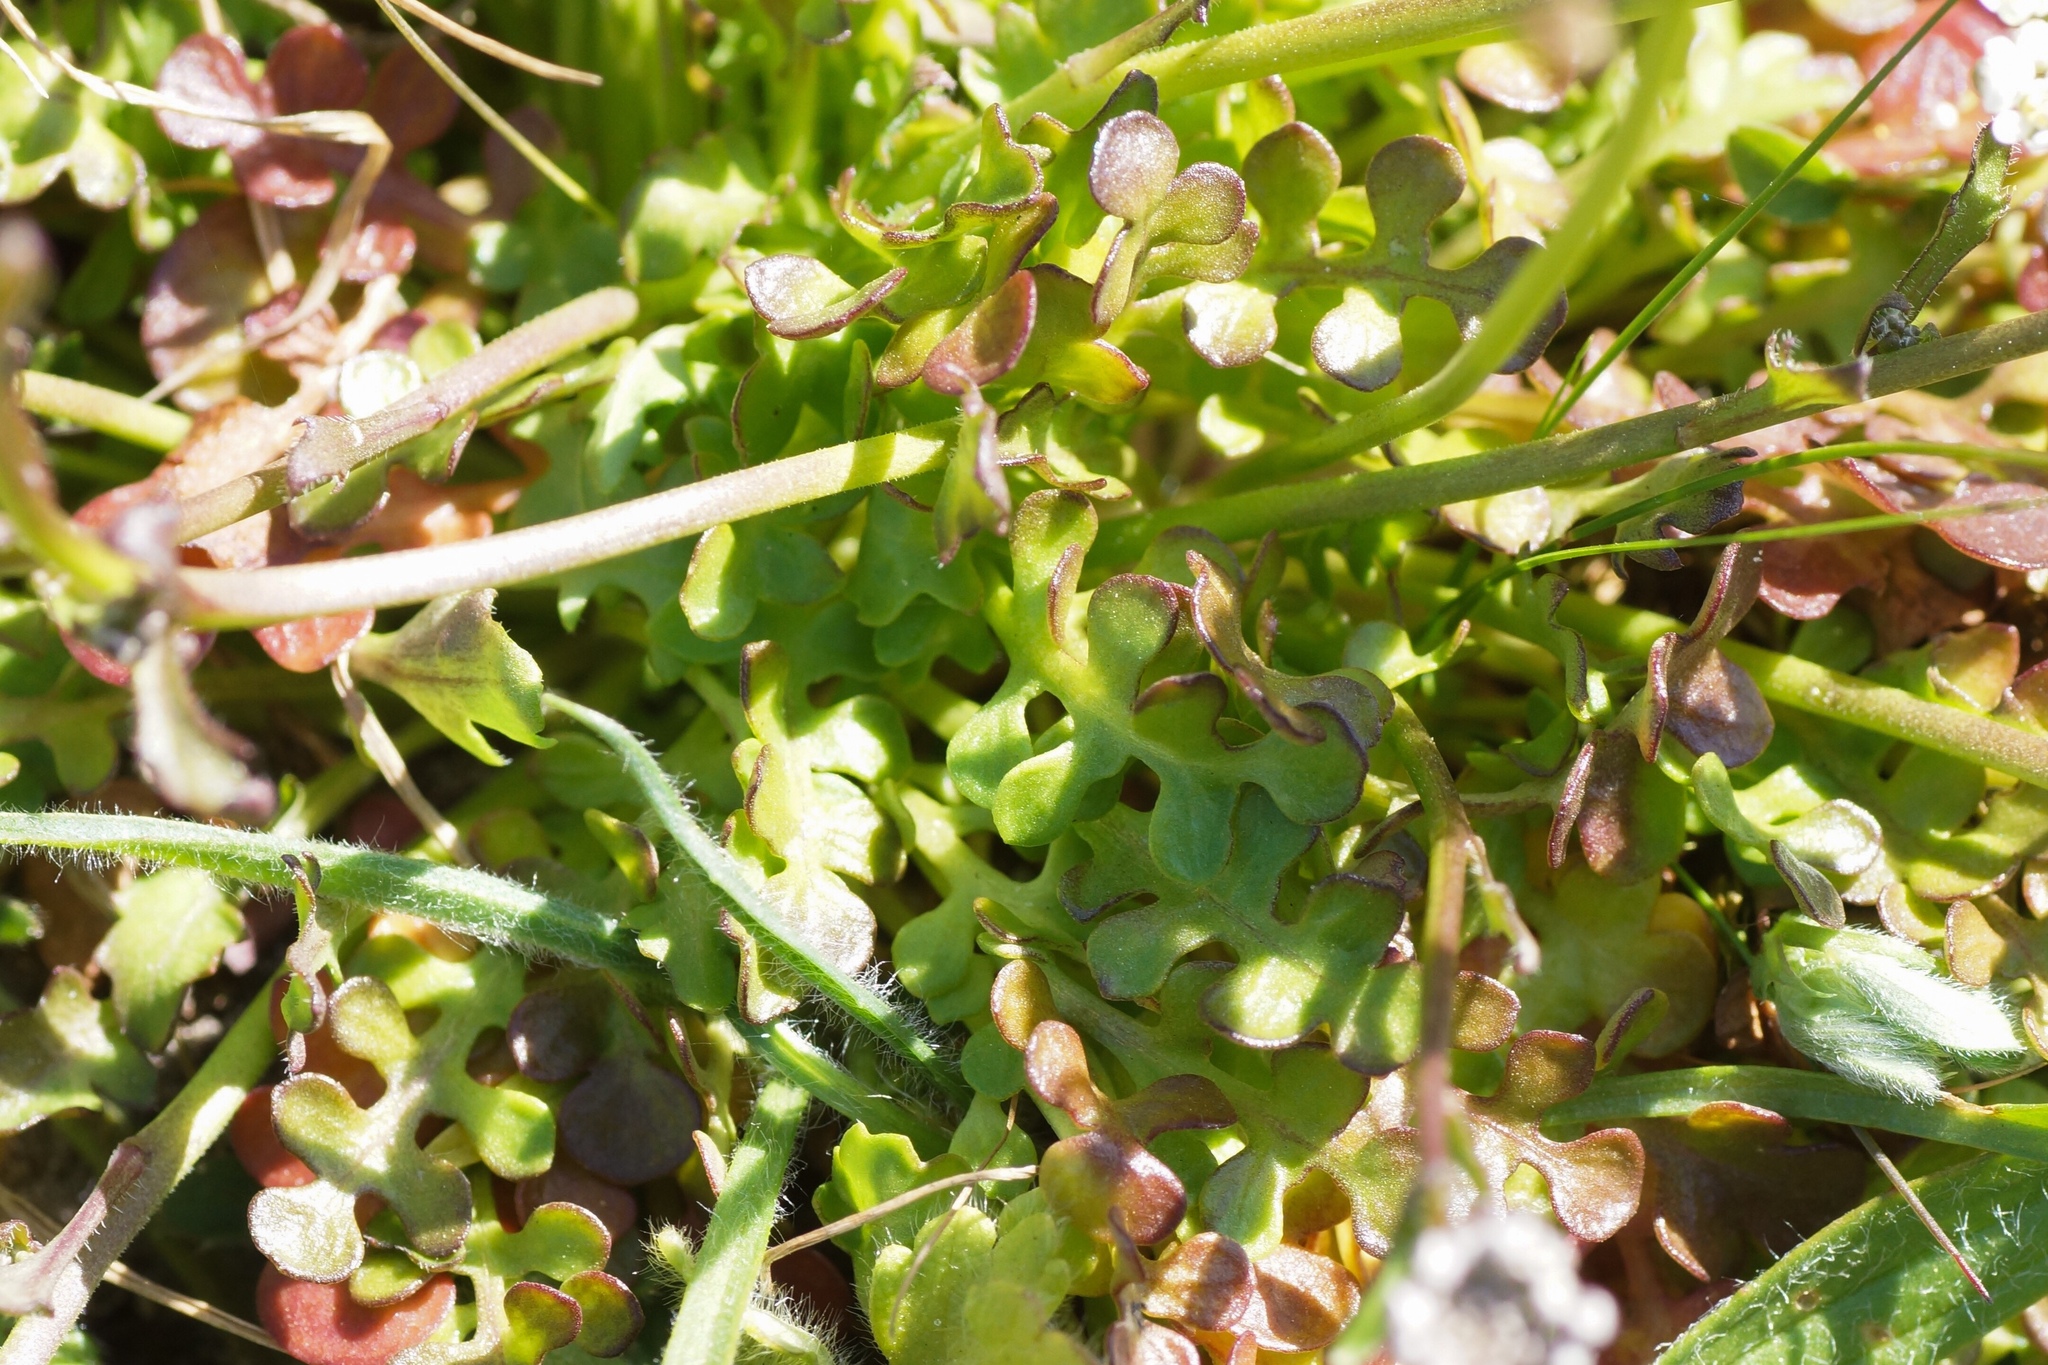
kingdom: Plantae
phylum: Tracheophyta
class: Magnoliopsida
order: Brassicales
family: Brassicaceae
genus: Teesdalia
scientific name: Teesdalia nudicaulis
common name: Shepherd's cress
